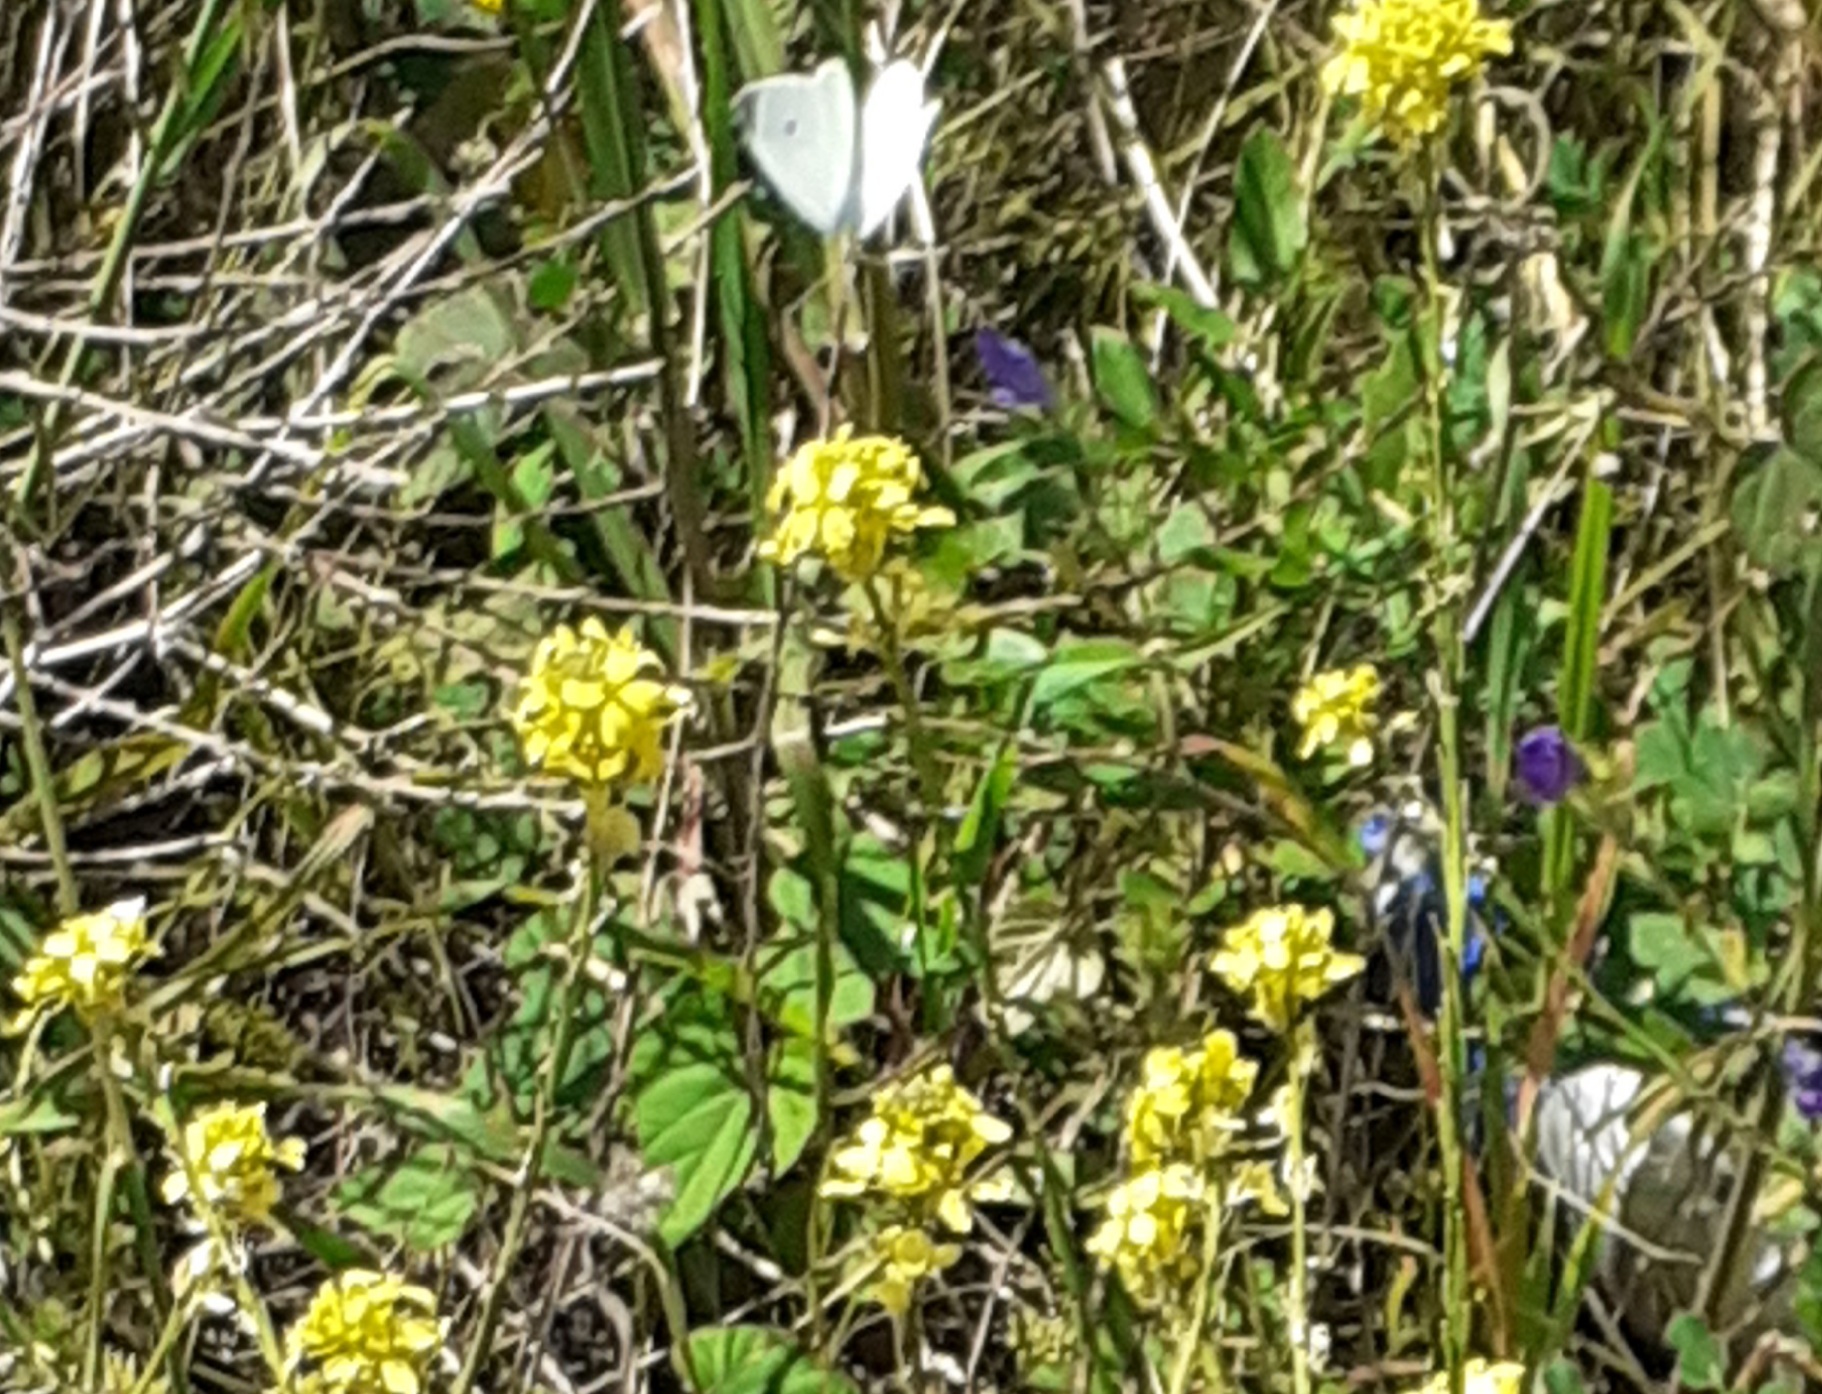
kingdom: Animalia
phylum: Arthropoda
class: Insecta
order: Lepidoptera
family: Pieridae
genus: Pieris
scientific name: Pieris rapae
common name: Small white
